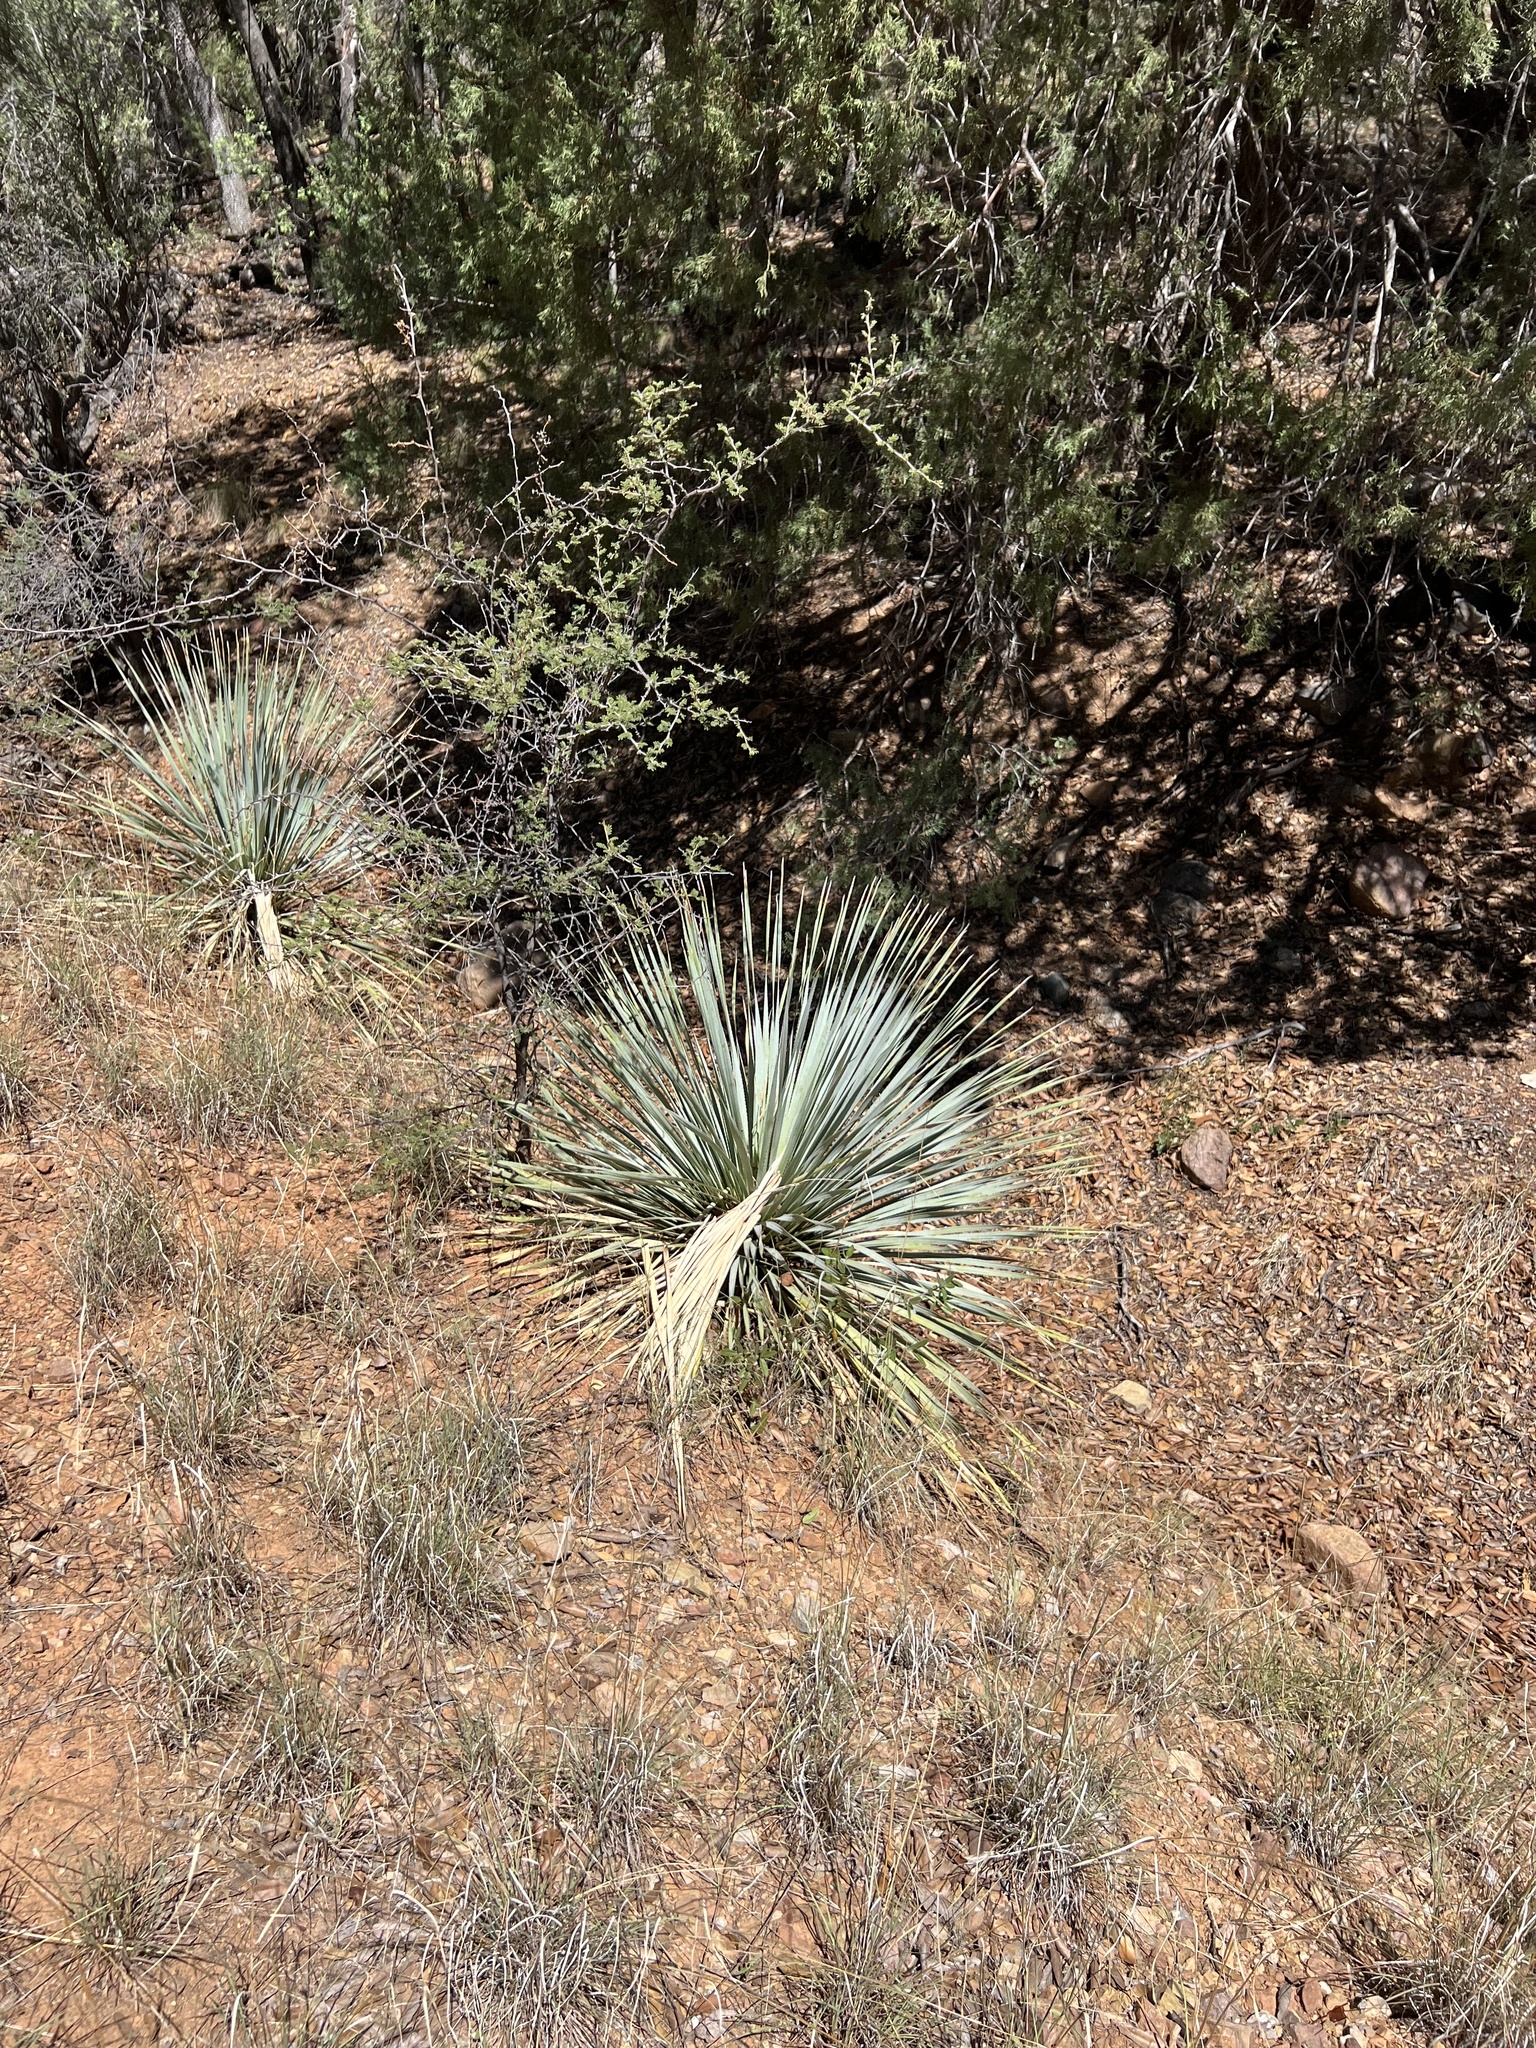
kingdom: Plantae
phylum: Tracheophyta
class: Liliopsida
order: Asparagales
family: Asparagaceae
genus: Dasylirion
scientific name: Dasylirion wheeleri
